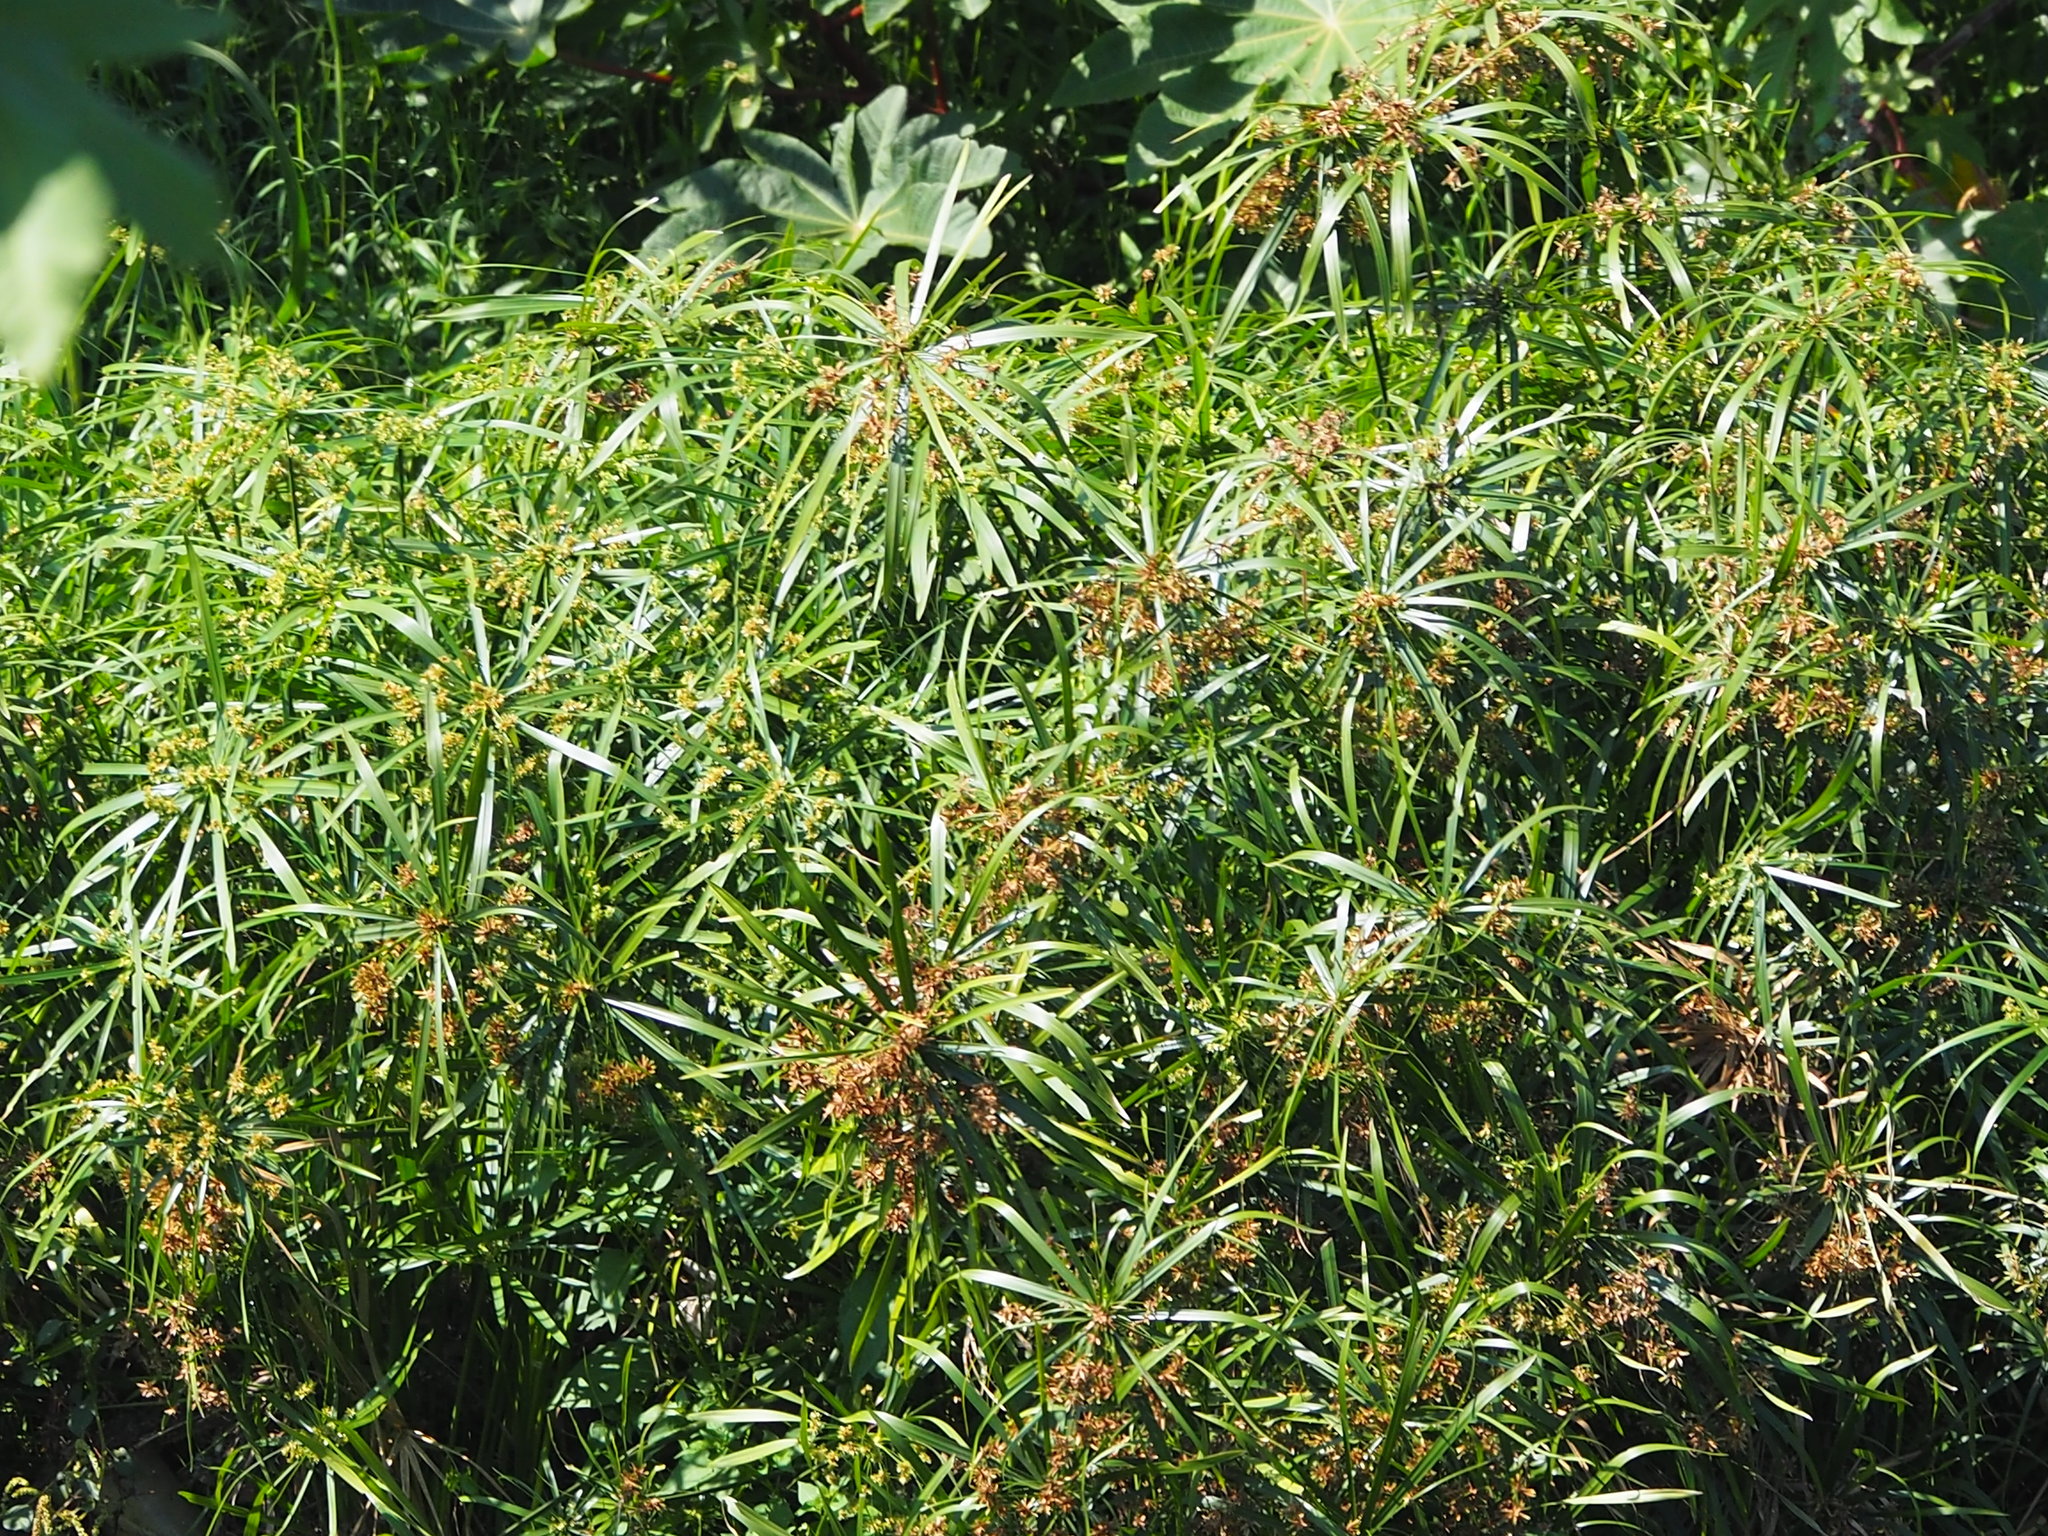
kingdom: Plantae
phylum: Tracheophyta
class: Liliopsida
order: Poales
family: Cyperaceae
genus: Cyperus
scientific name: Cyperus alternifolius
